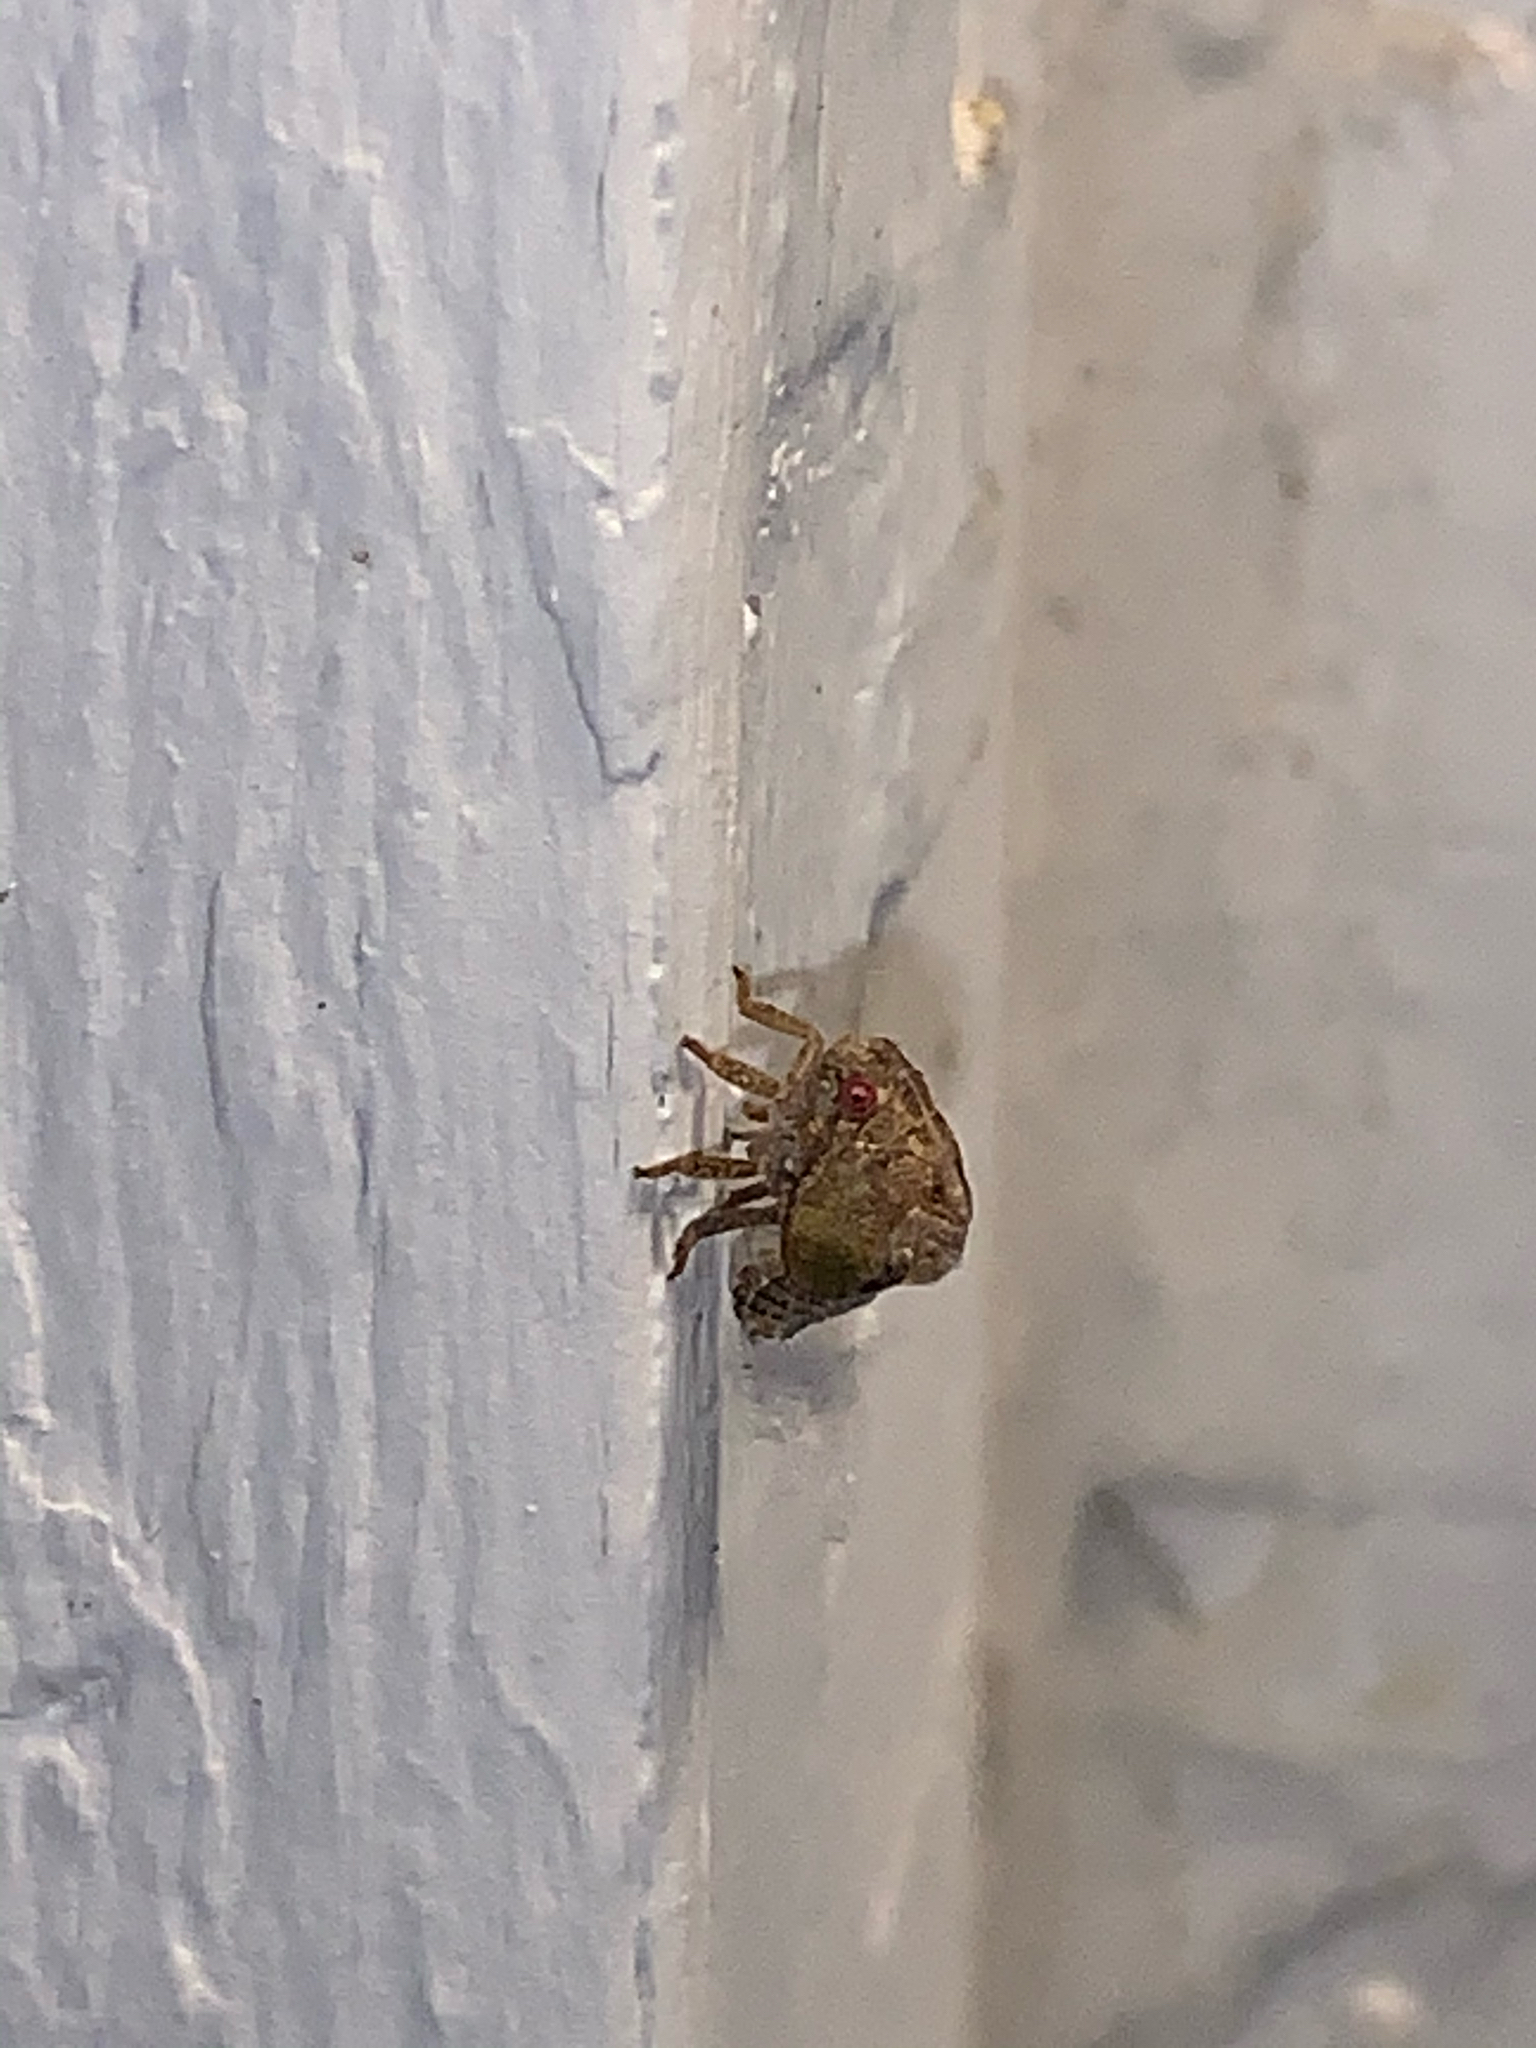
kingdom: Animalia
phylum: Arthropoda
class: Insecta
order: Hemiptera
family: Acanaloniidae
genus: Acanalonia
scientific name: Acanalonia
